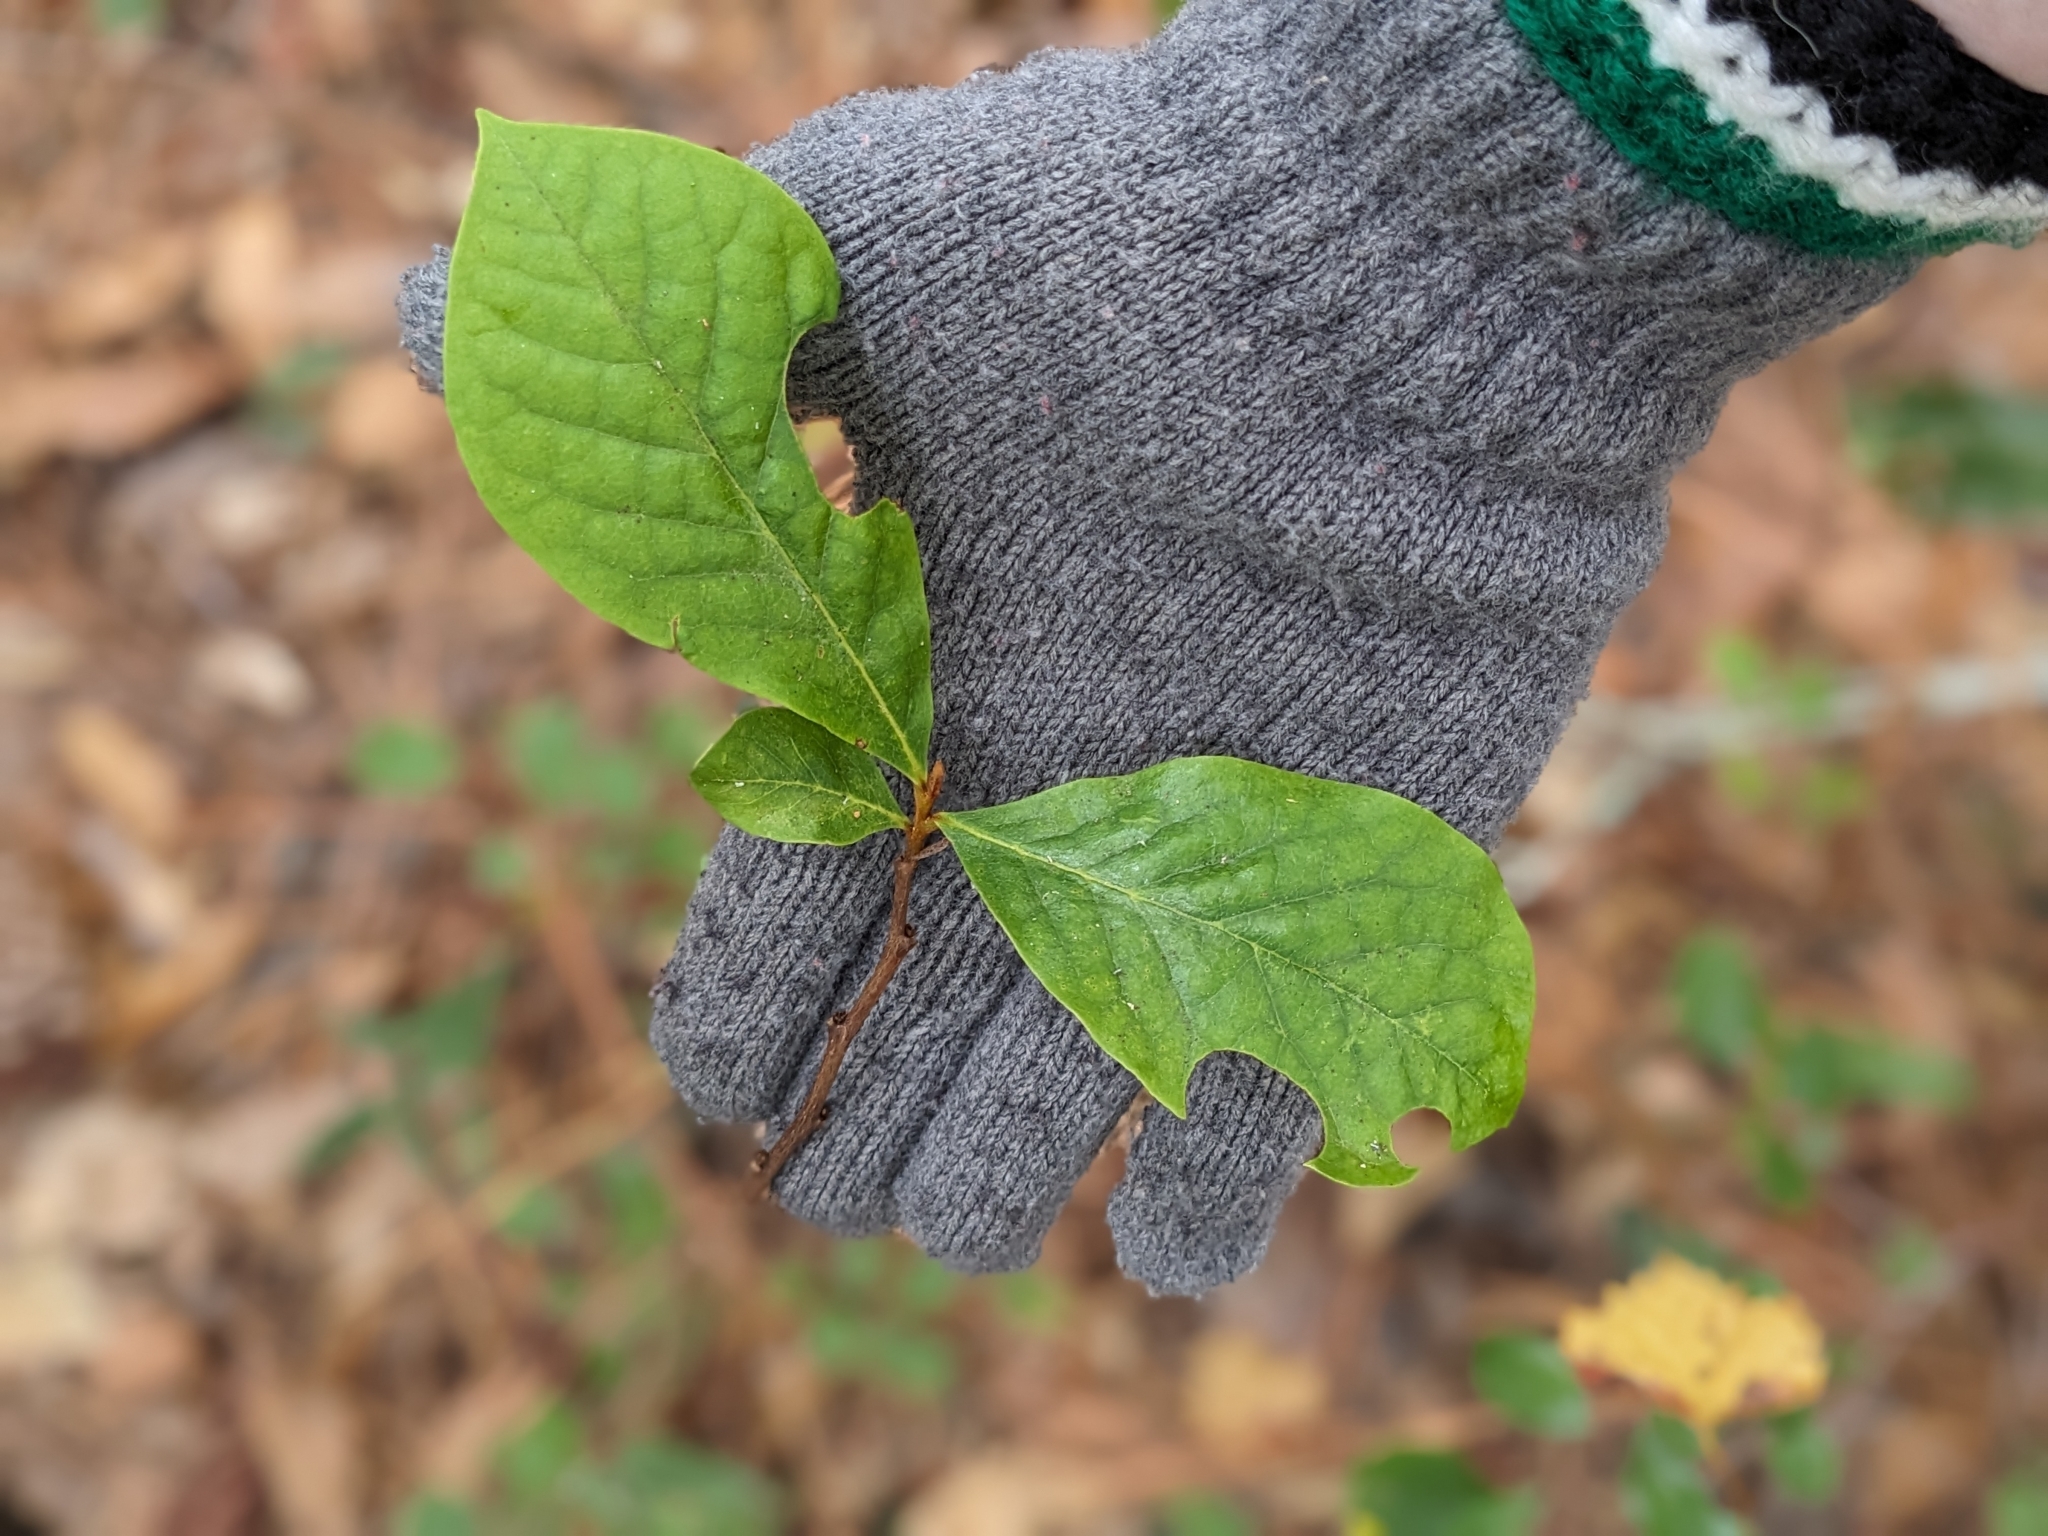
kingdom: Plantae
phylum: Tracheophyta
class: Magnoliopsida
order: Magnoliales
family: Annonaceae
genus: Asimina
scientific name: Asimina parviflora
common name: Dwarf pawpaw
